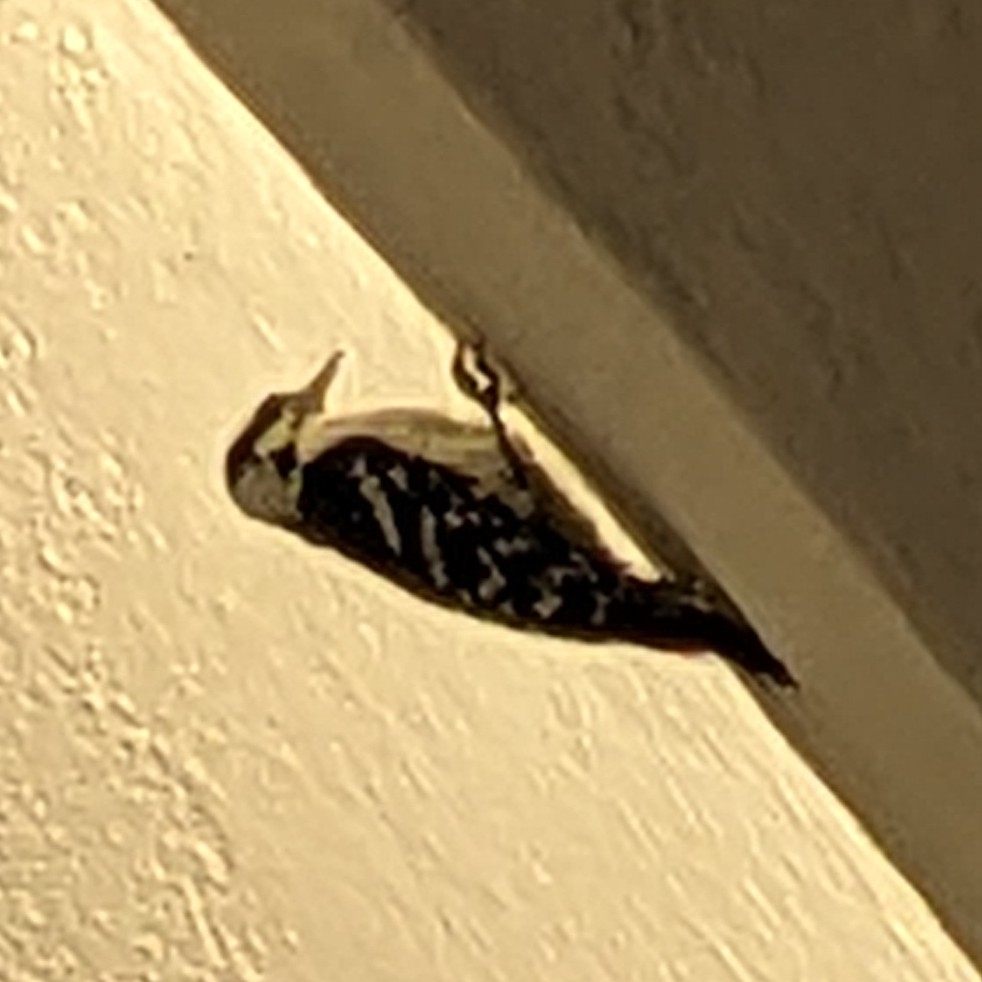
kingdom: Animalia
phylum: Chordata
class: Aves
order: Piciformes
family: Picidae
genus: Leuconotopicus
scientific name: Leuconotopicus villosus
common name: Hairy woodpecker
